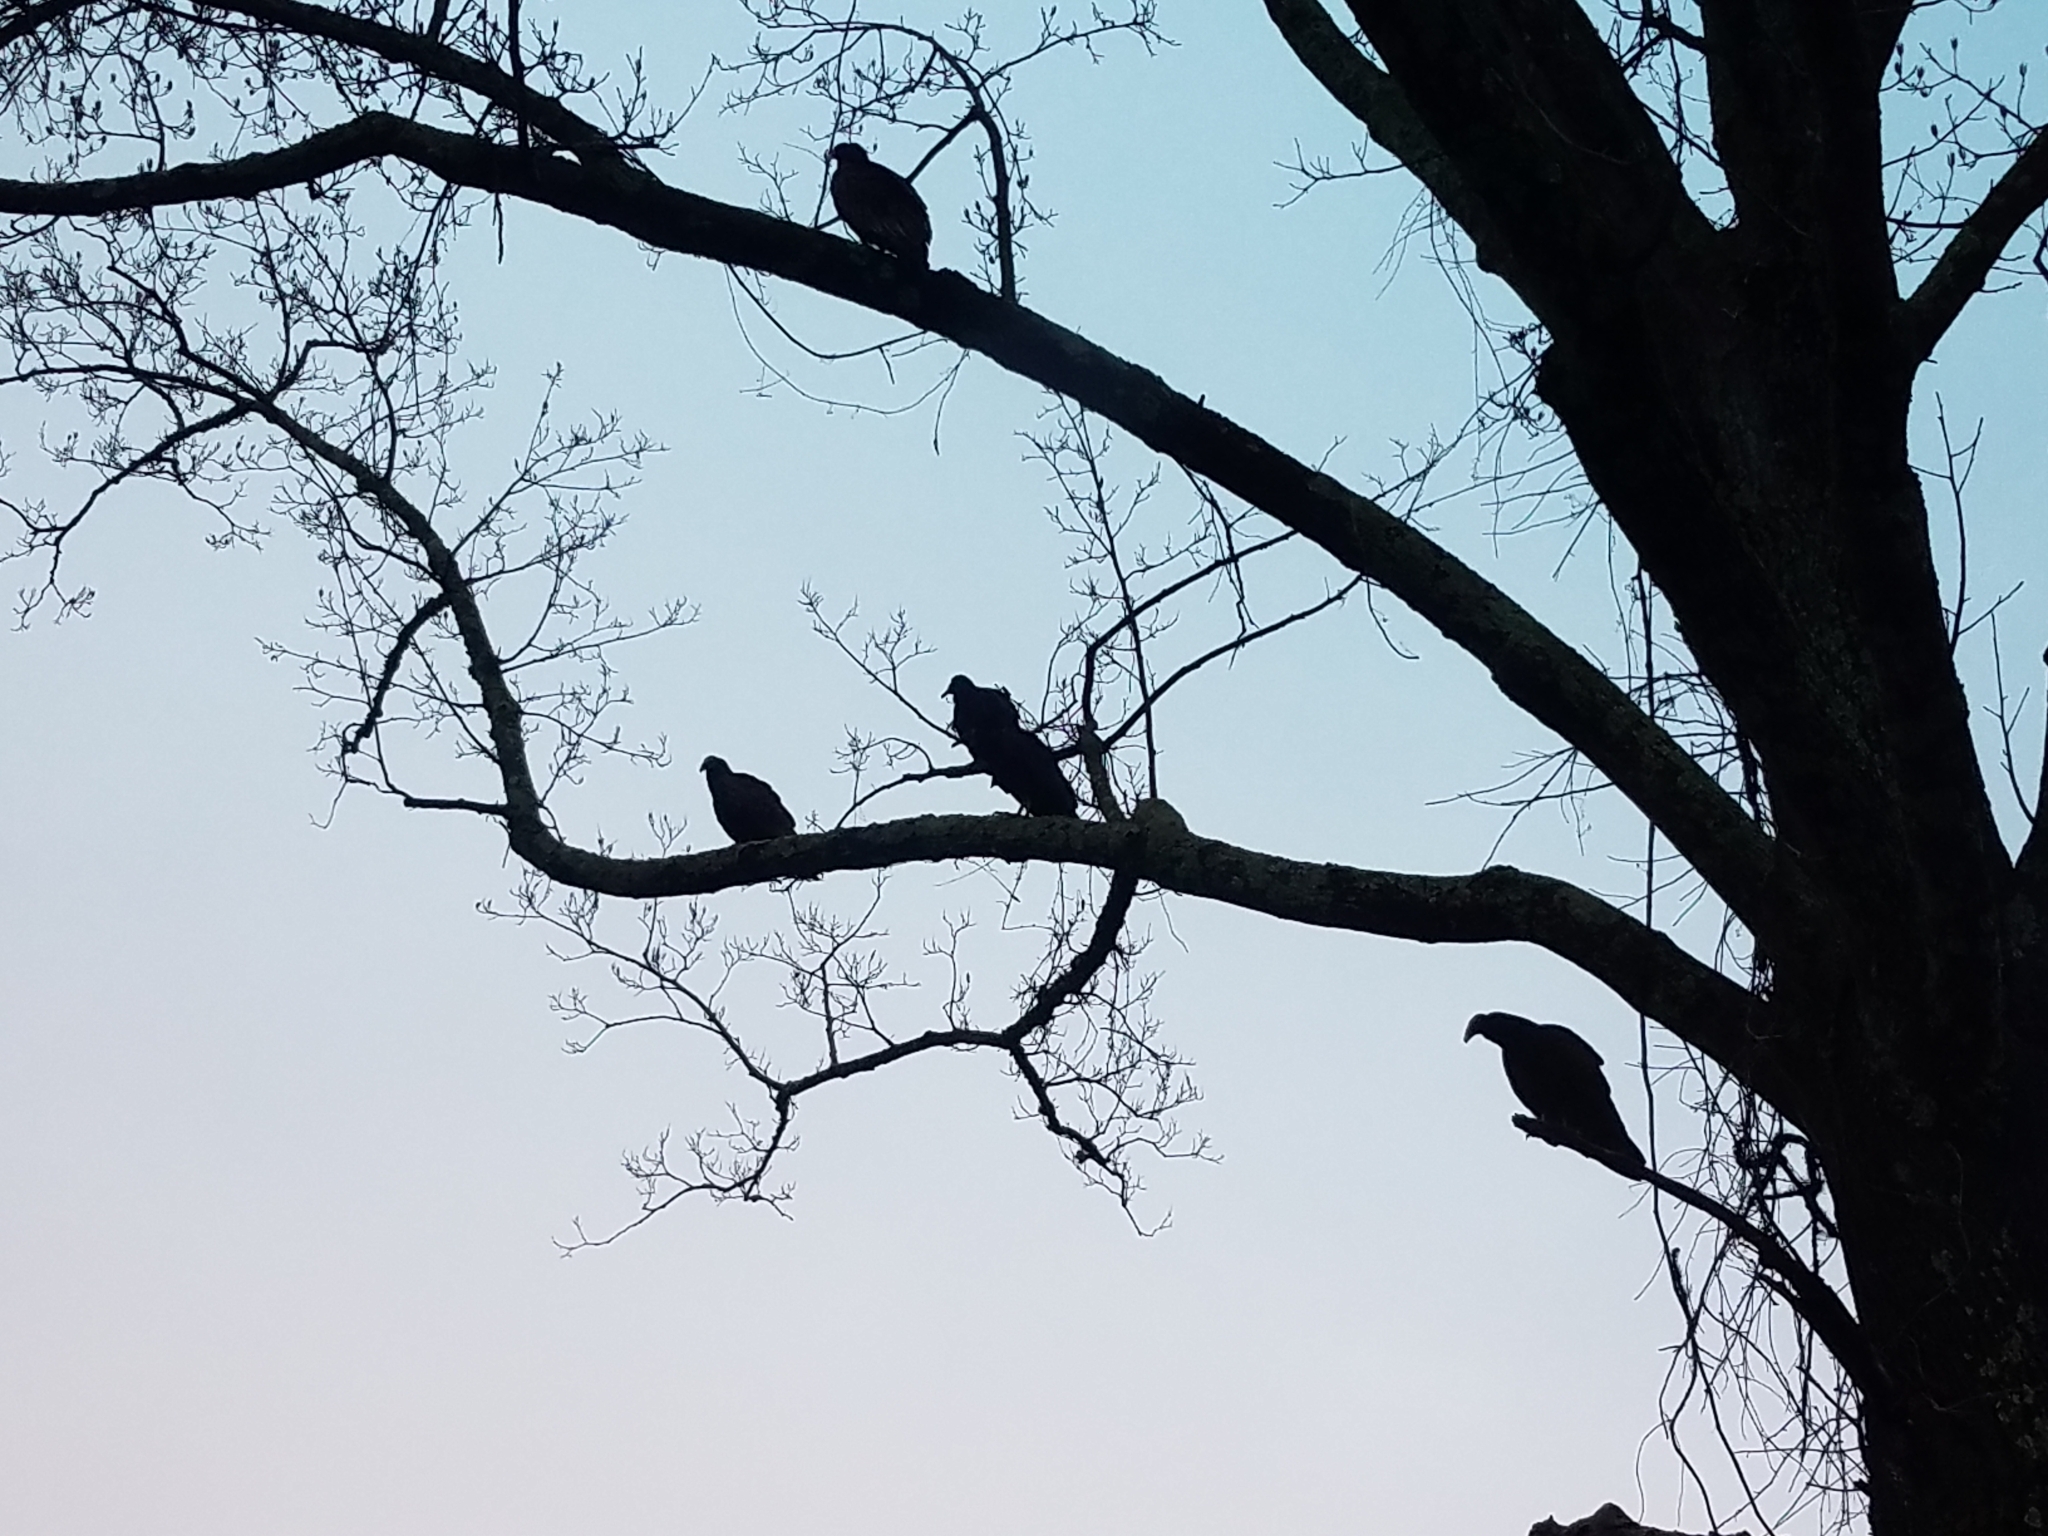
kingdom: Animalia
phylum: Chordata
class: Aves
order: Accipitriformes
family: Cathartidae
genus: Cathartes
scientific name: Cathartes aura
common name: Turkey vulture
